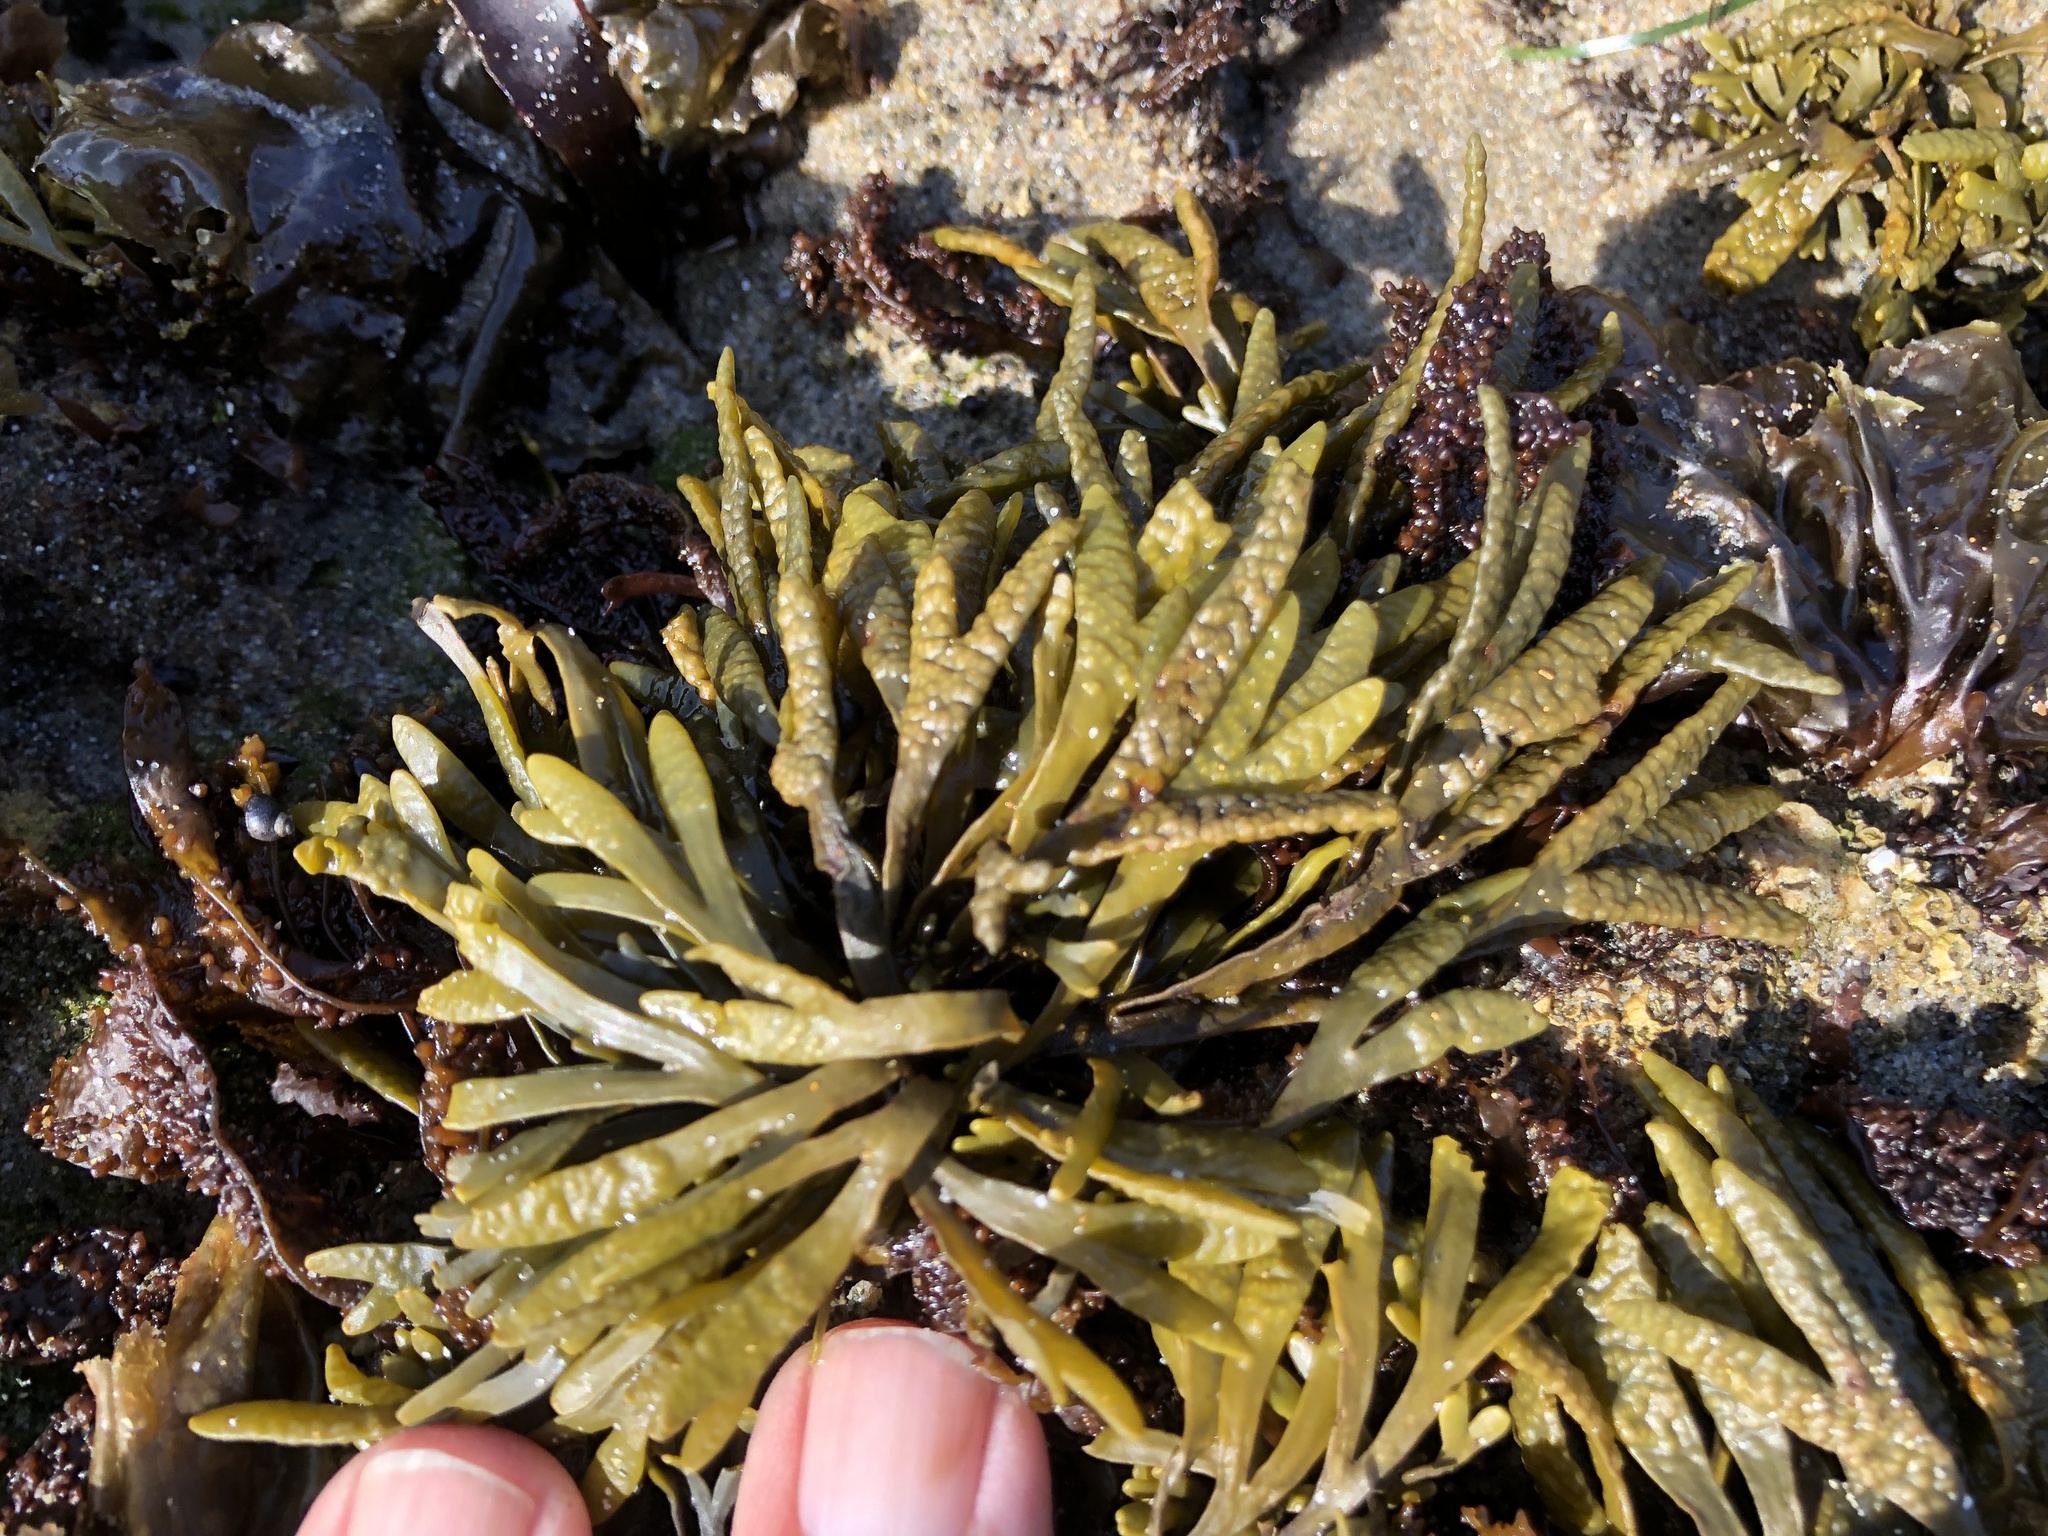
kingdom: Chromista
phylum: Ochrophyta
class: Phaeophyceae
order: Fucales
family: Fucaceae
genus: Pelvetiopsis
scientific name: Pelvetiopsis limitata
